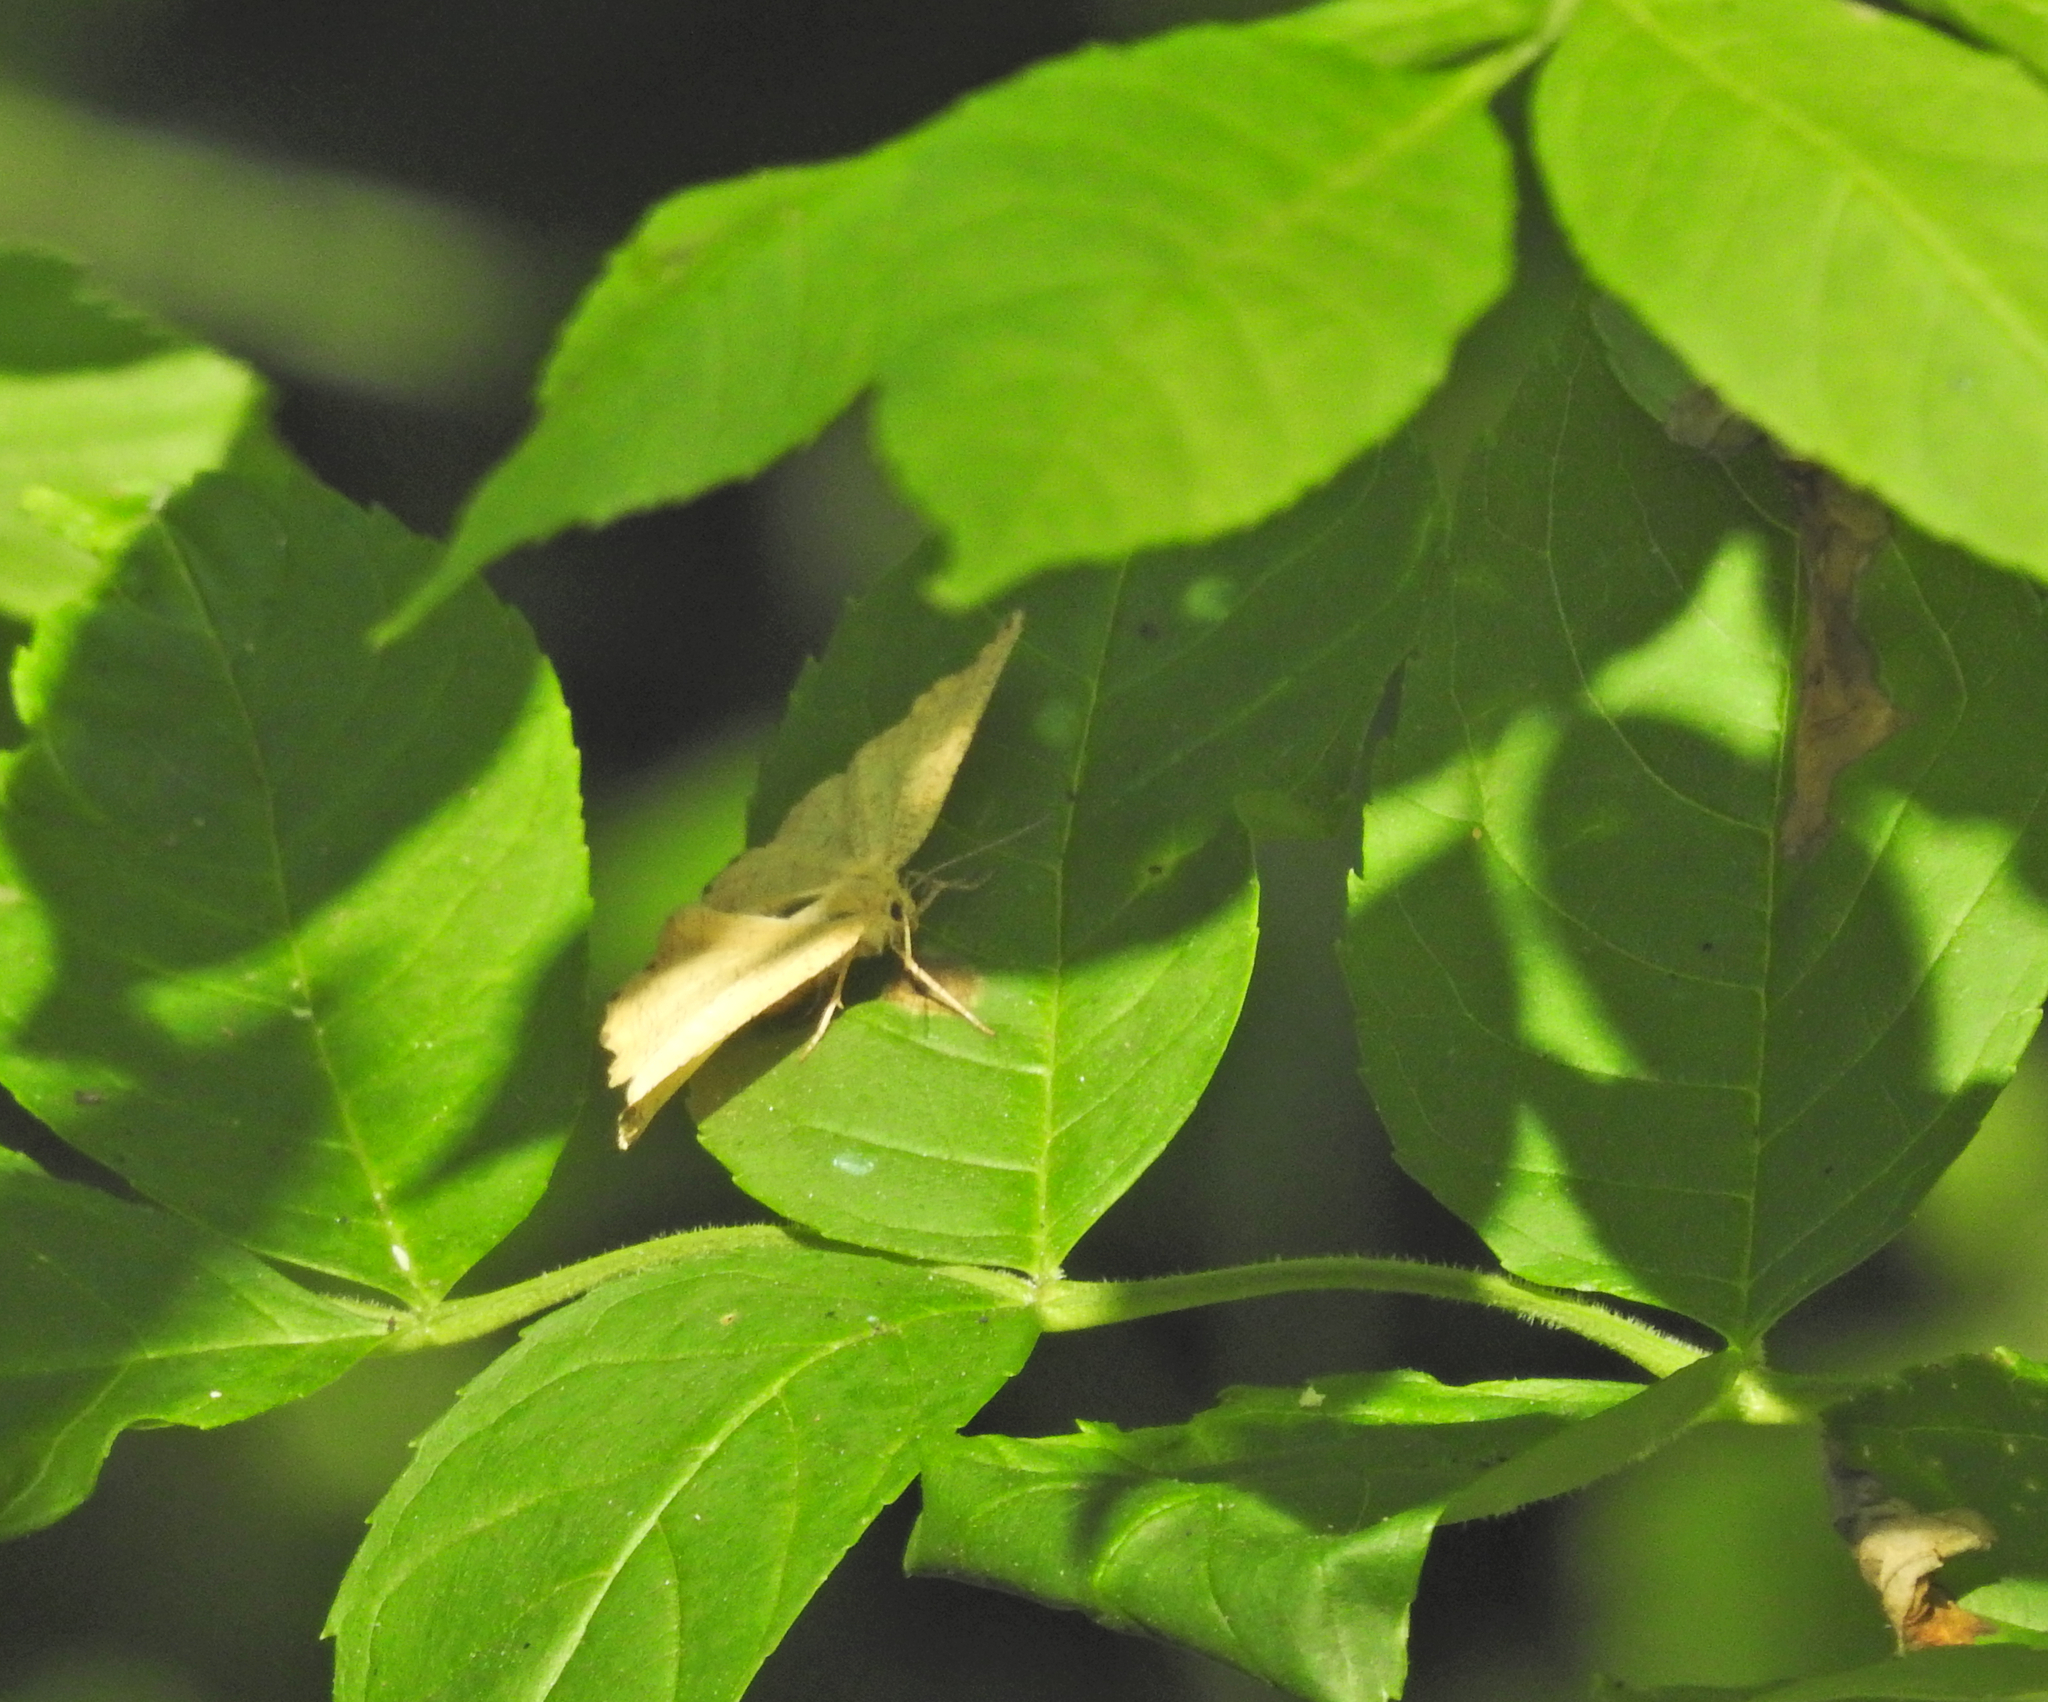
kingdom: Animalia
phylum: Arthropoda
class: Insecta
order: Lepidoptera
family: Geometridae
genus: Angerona
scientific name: Angerona prunaria
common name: Orange moth
